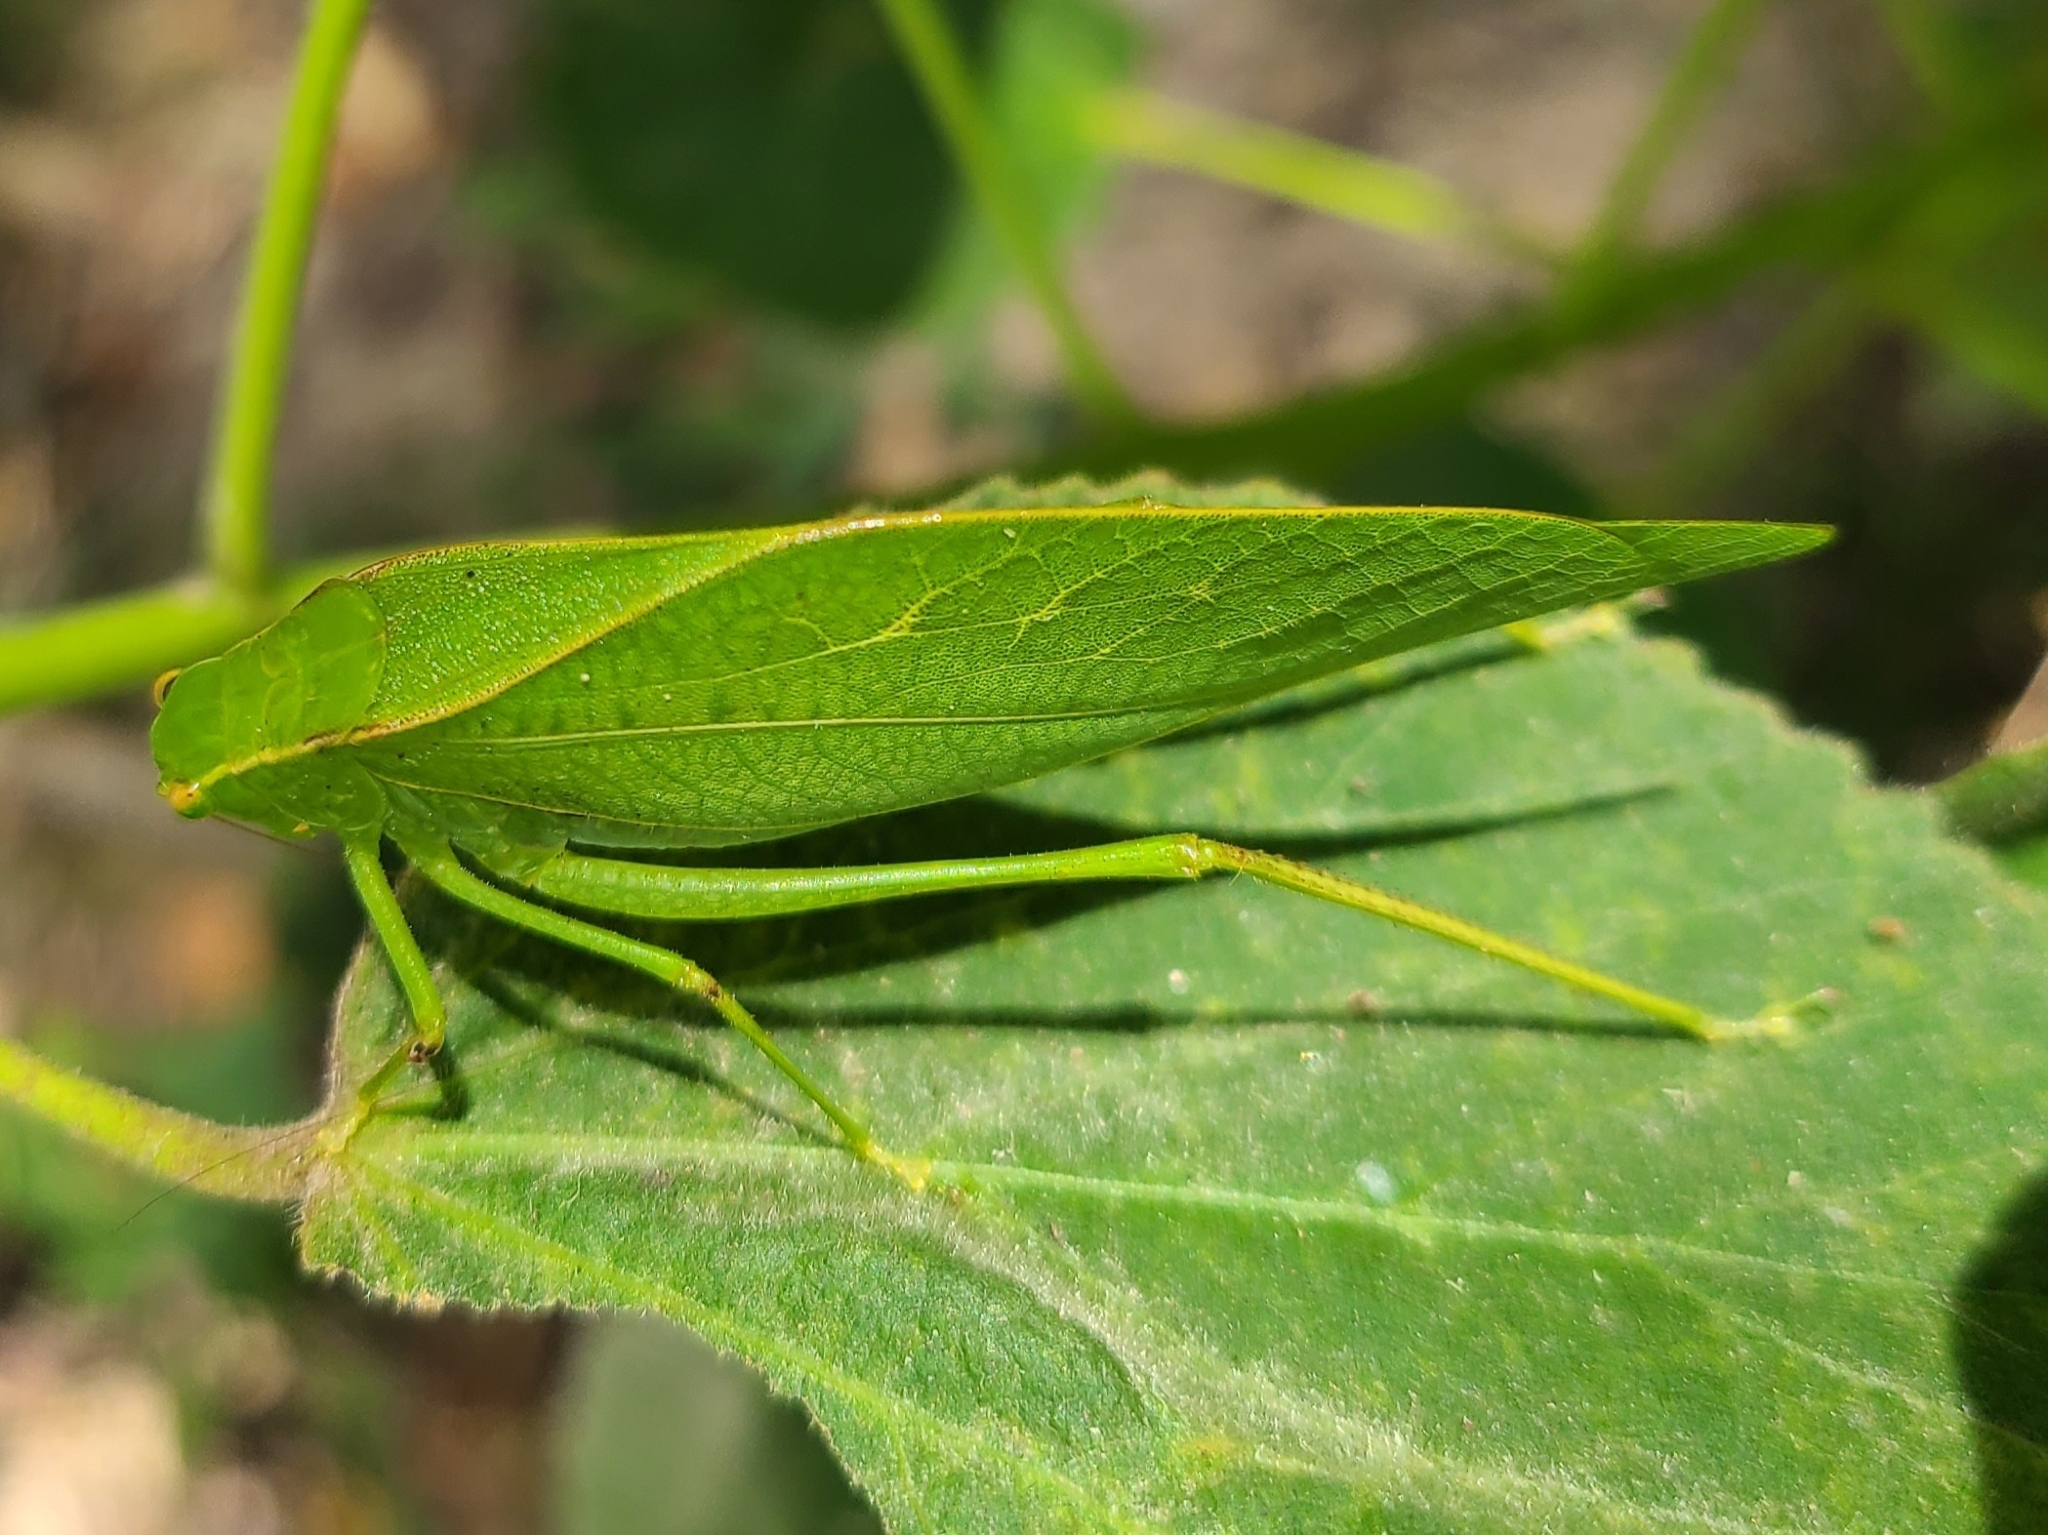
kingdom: Animalia
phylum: Arthropoda
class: Insecta
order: Orthoptera
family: Tettigoniidae
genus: Microcentrum
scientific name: Microcentrum retinerve
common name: Angular-winged katydid
